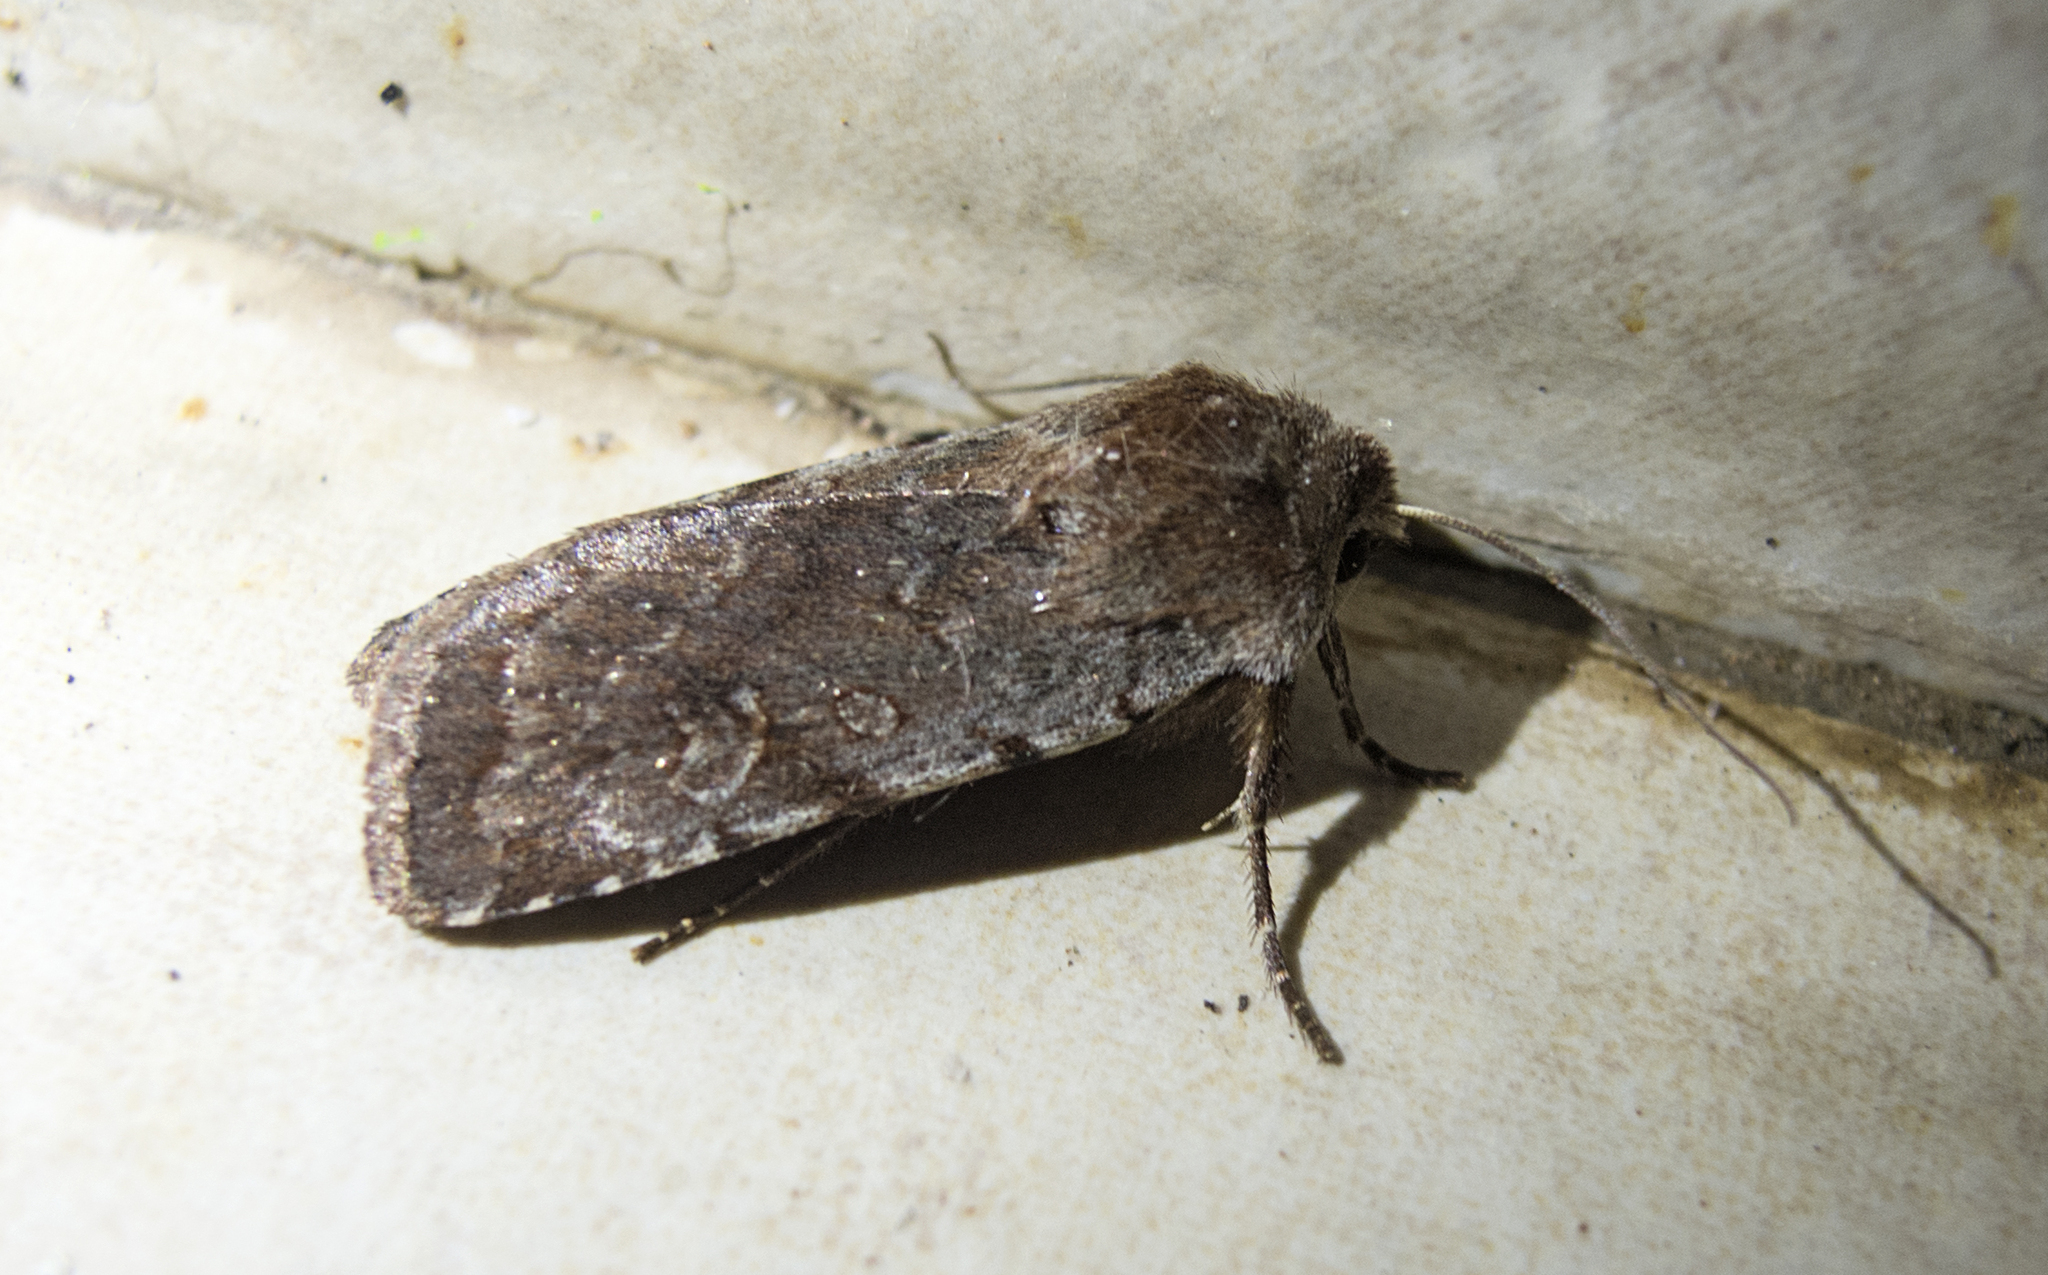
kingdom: Animalia
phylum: Arthropoda
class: Insecta
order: Lepidoptera
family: Noctuidae
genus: Cerastis
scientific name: Cerastis rubricosa
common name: Red chestnut
